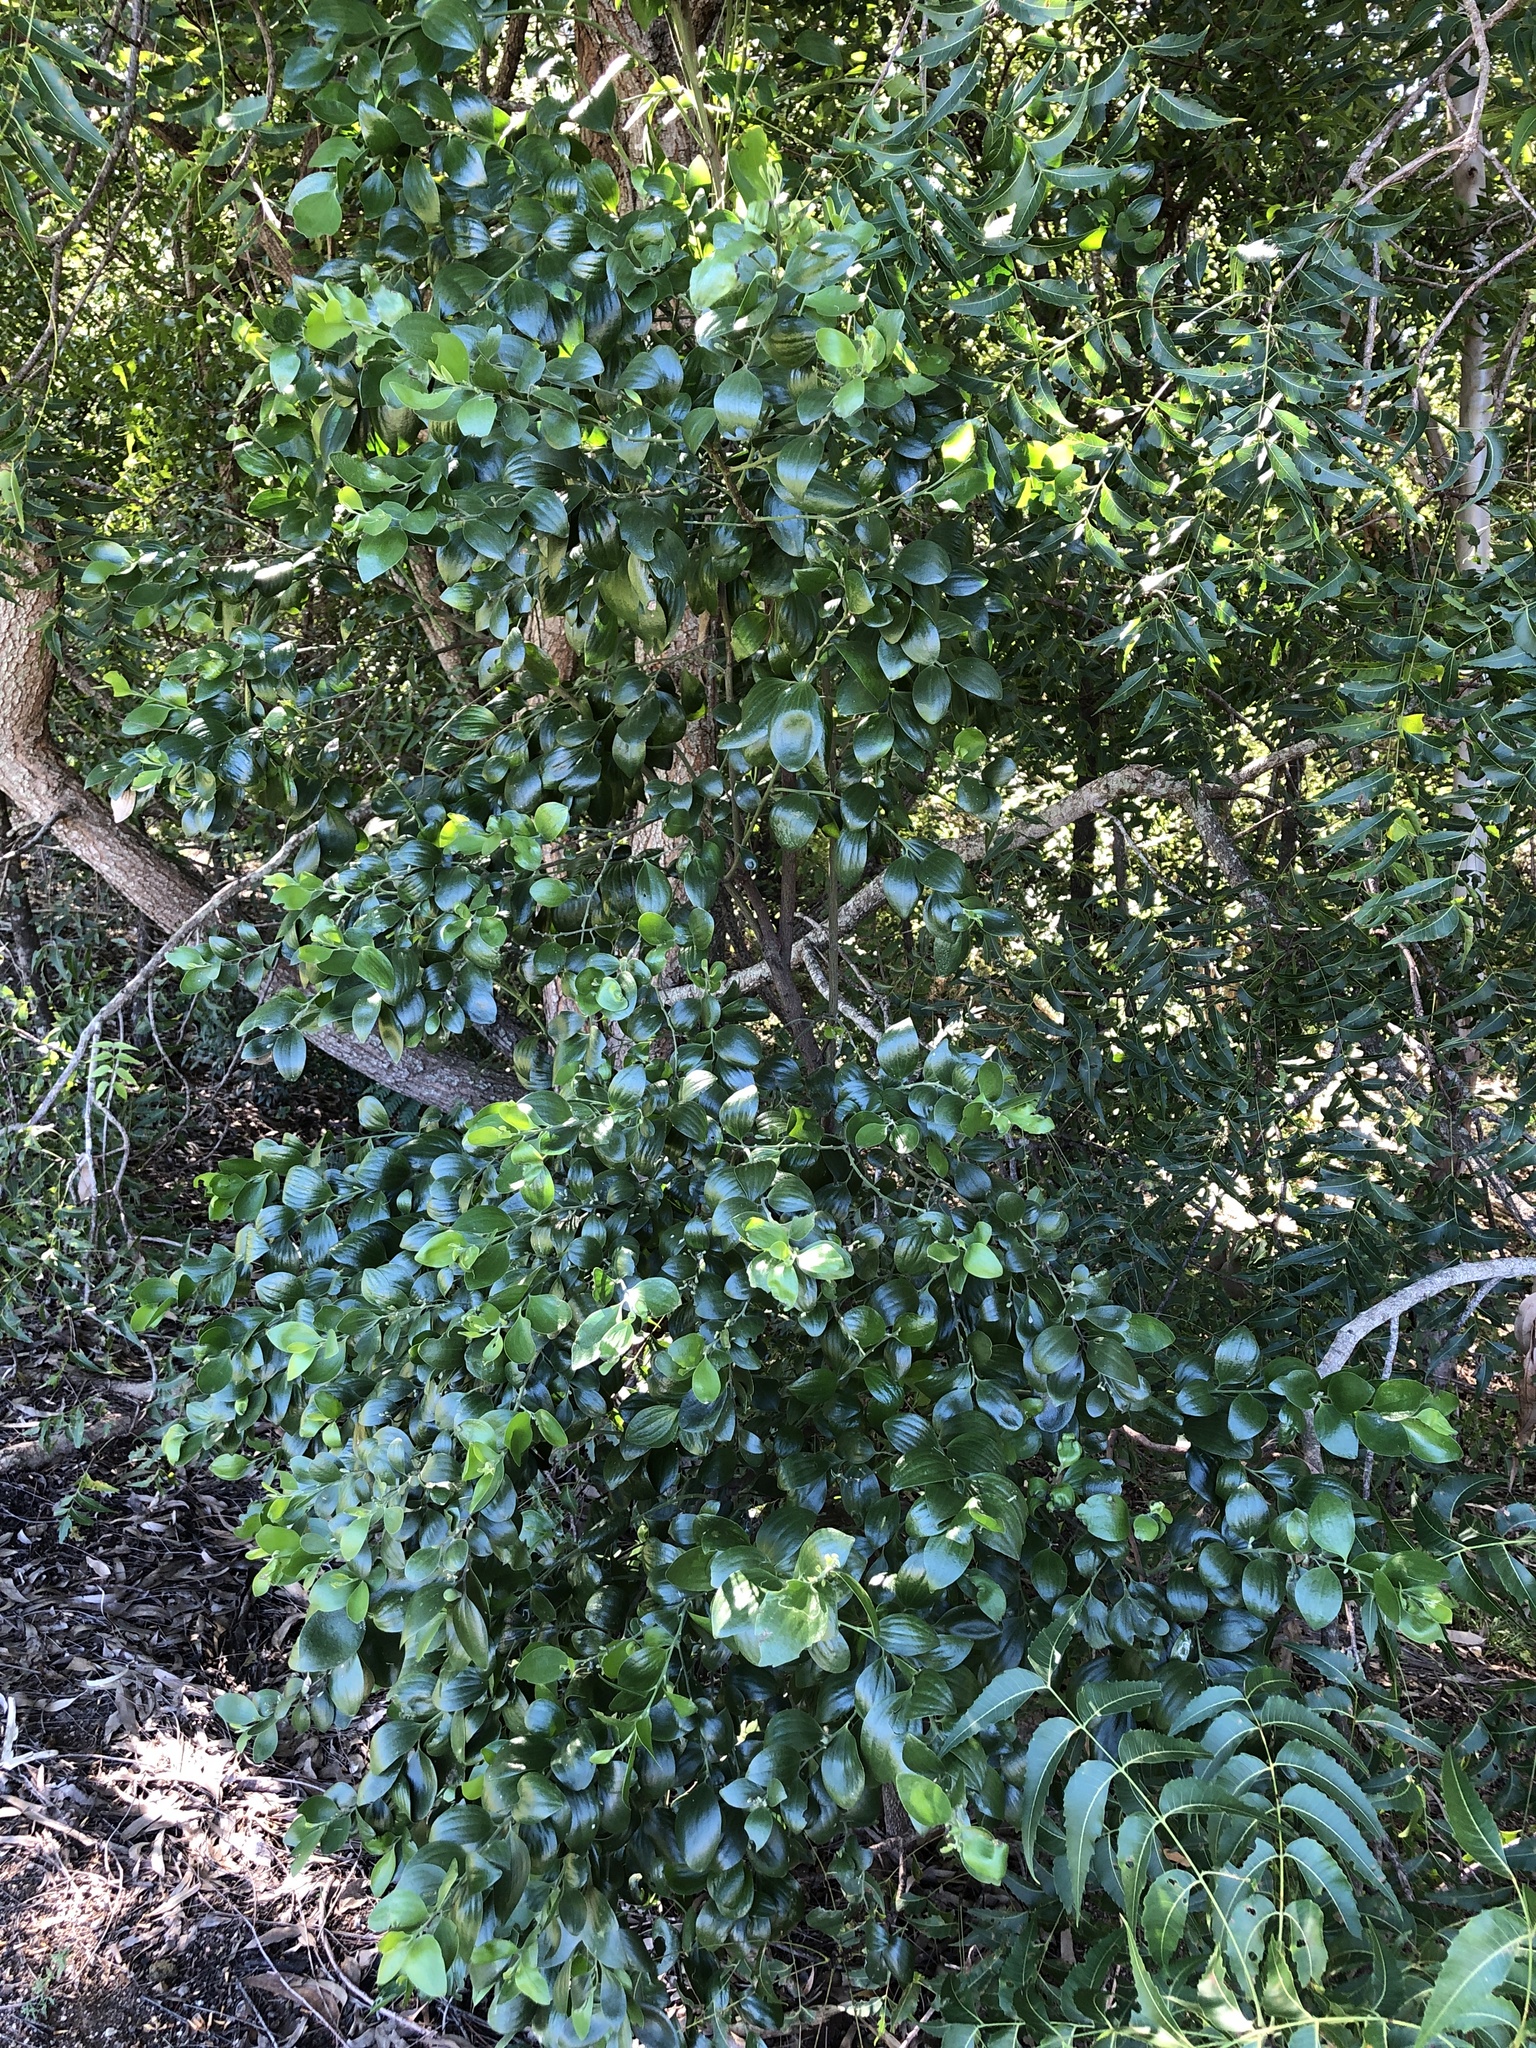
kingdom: Plantae
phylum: Tracheophyta
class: Magnoliopsida
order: Santalales
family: Santalaceae
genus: Exocarpos
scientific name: Exocarpos latifolius
